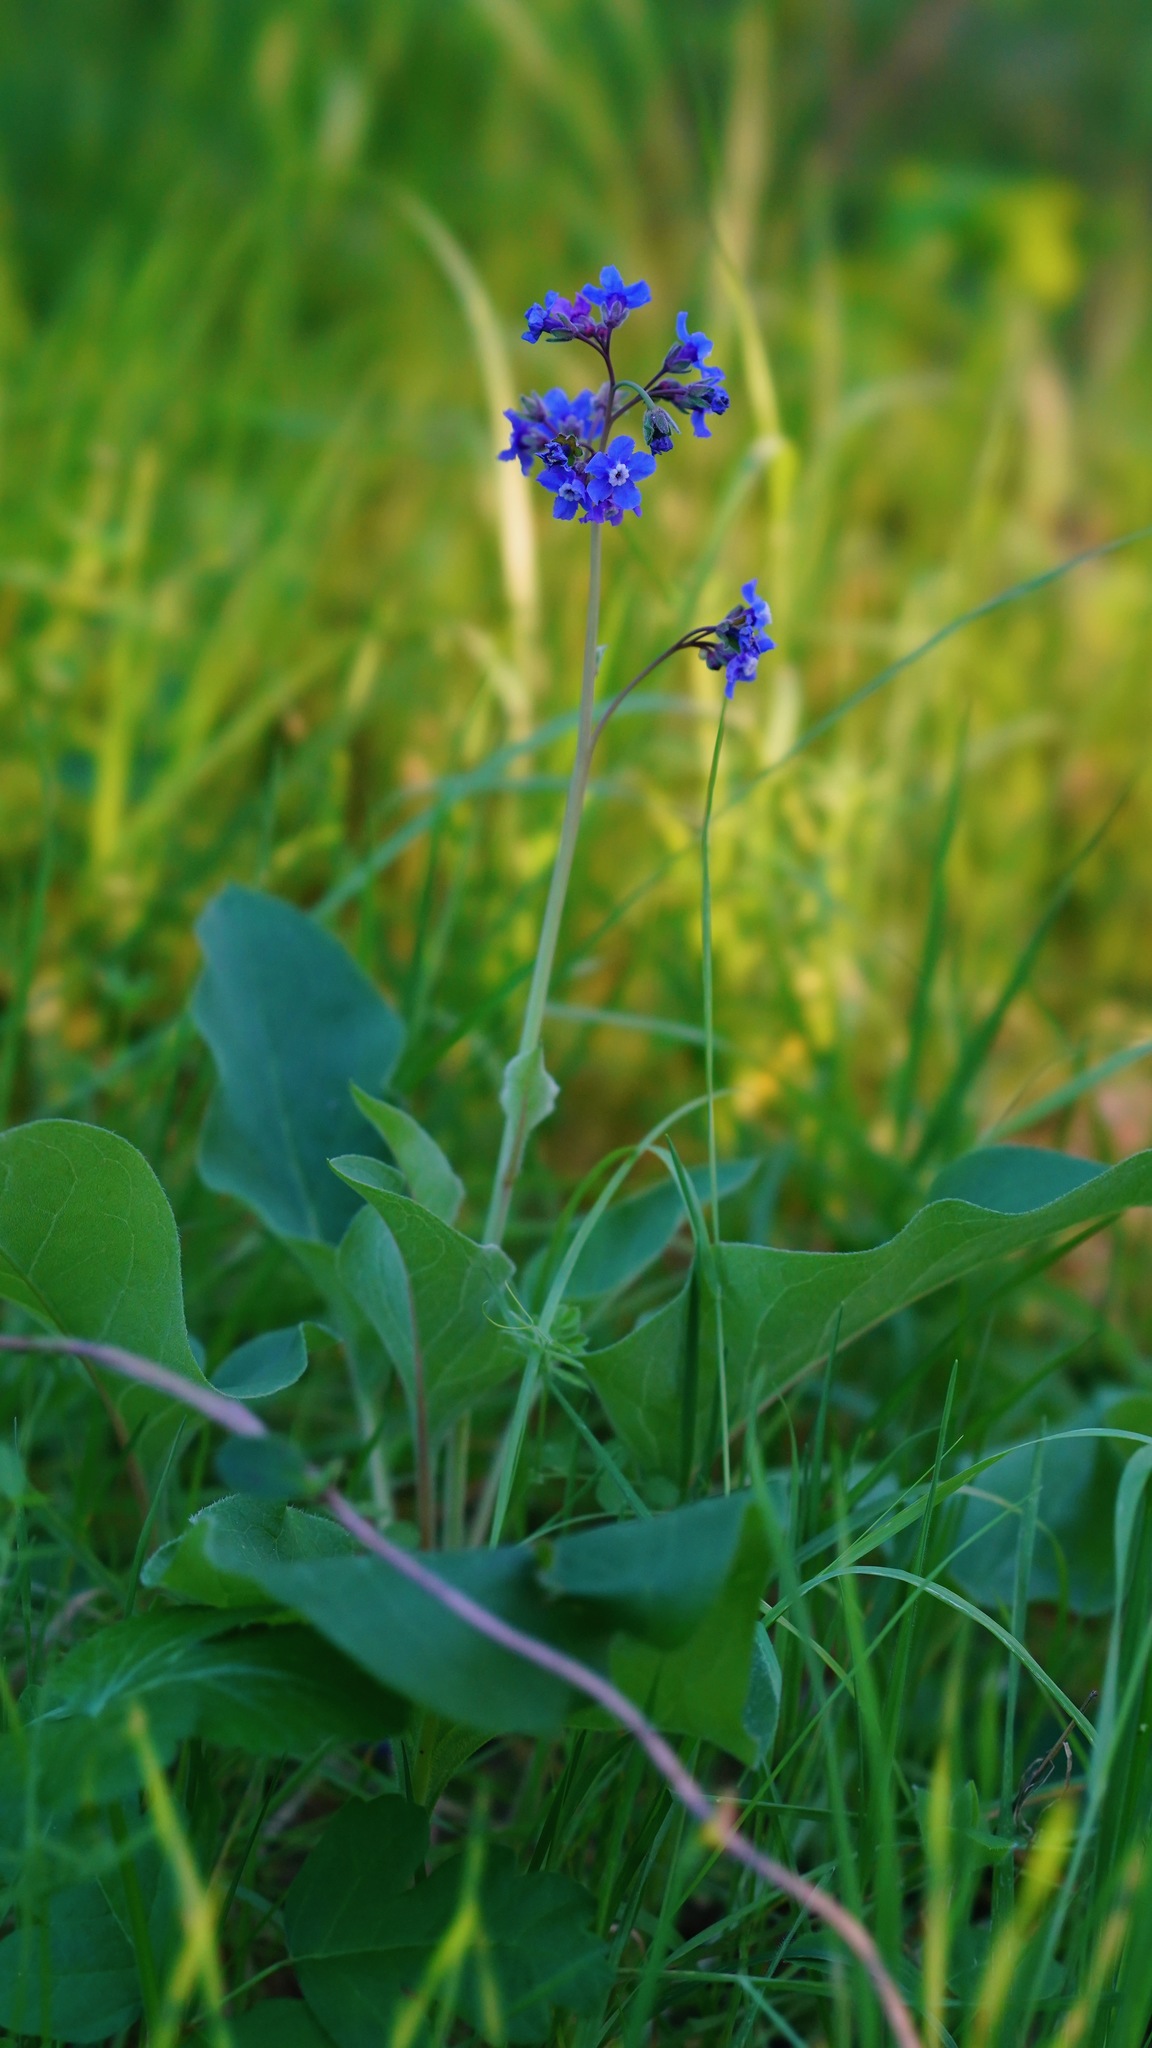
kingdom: Plantae
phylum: Tracheophyta
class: Magnoliopsida
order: Boraginales
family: Boraginaceae
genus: Adelinia
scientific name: Adelinia grande
